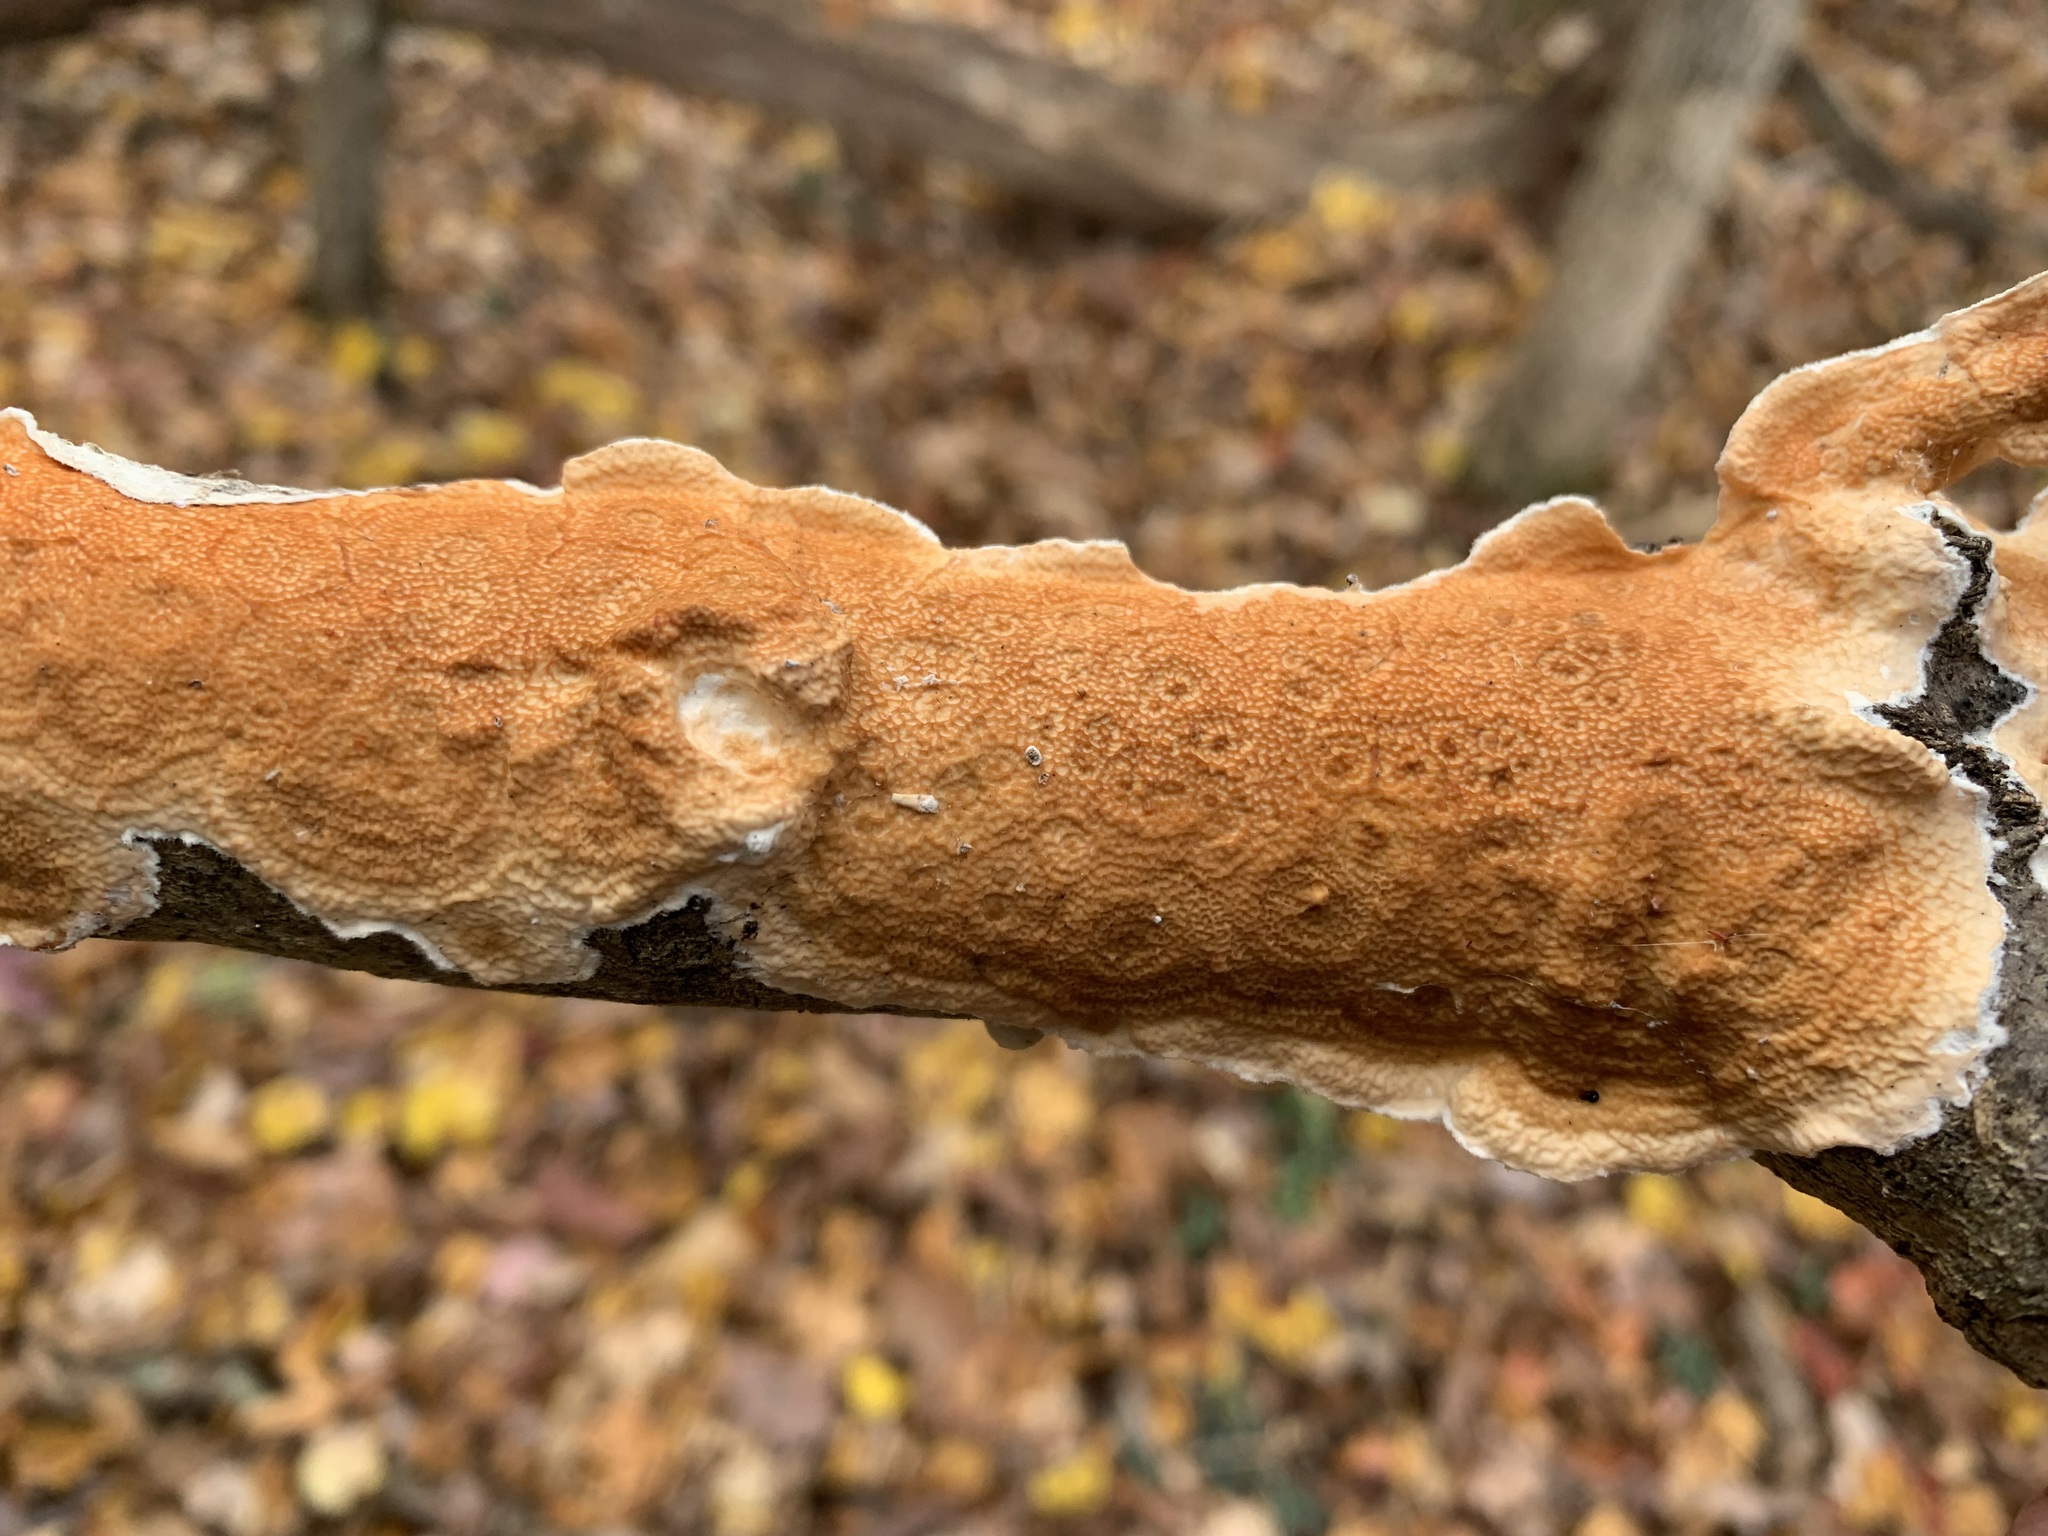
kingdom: Fungi
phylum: Basidiomycota
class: Agaricomycetes
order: Polyporales
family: Irpicaceae
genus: Byssomerulius
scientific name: Byssomerulius corium
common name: Netted crust
